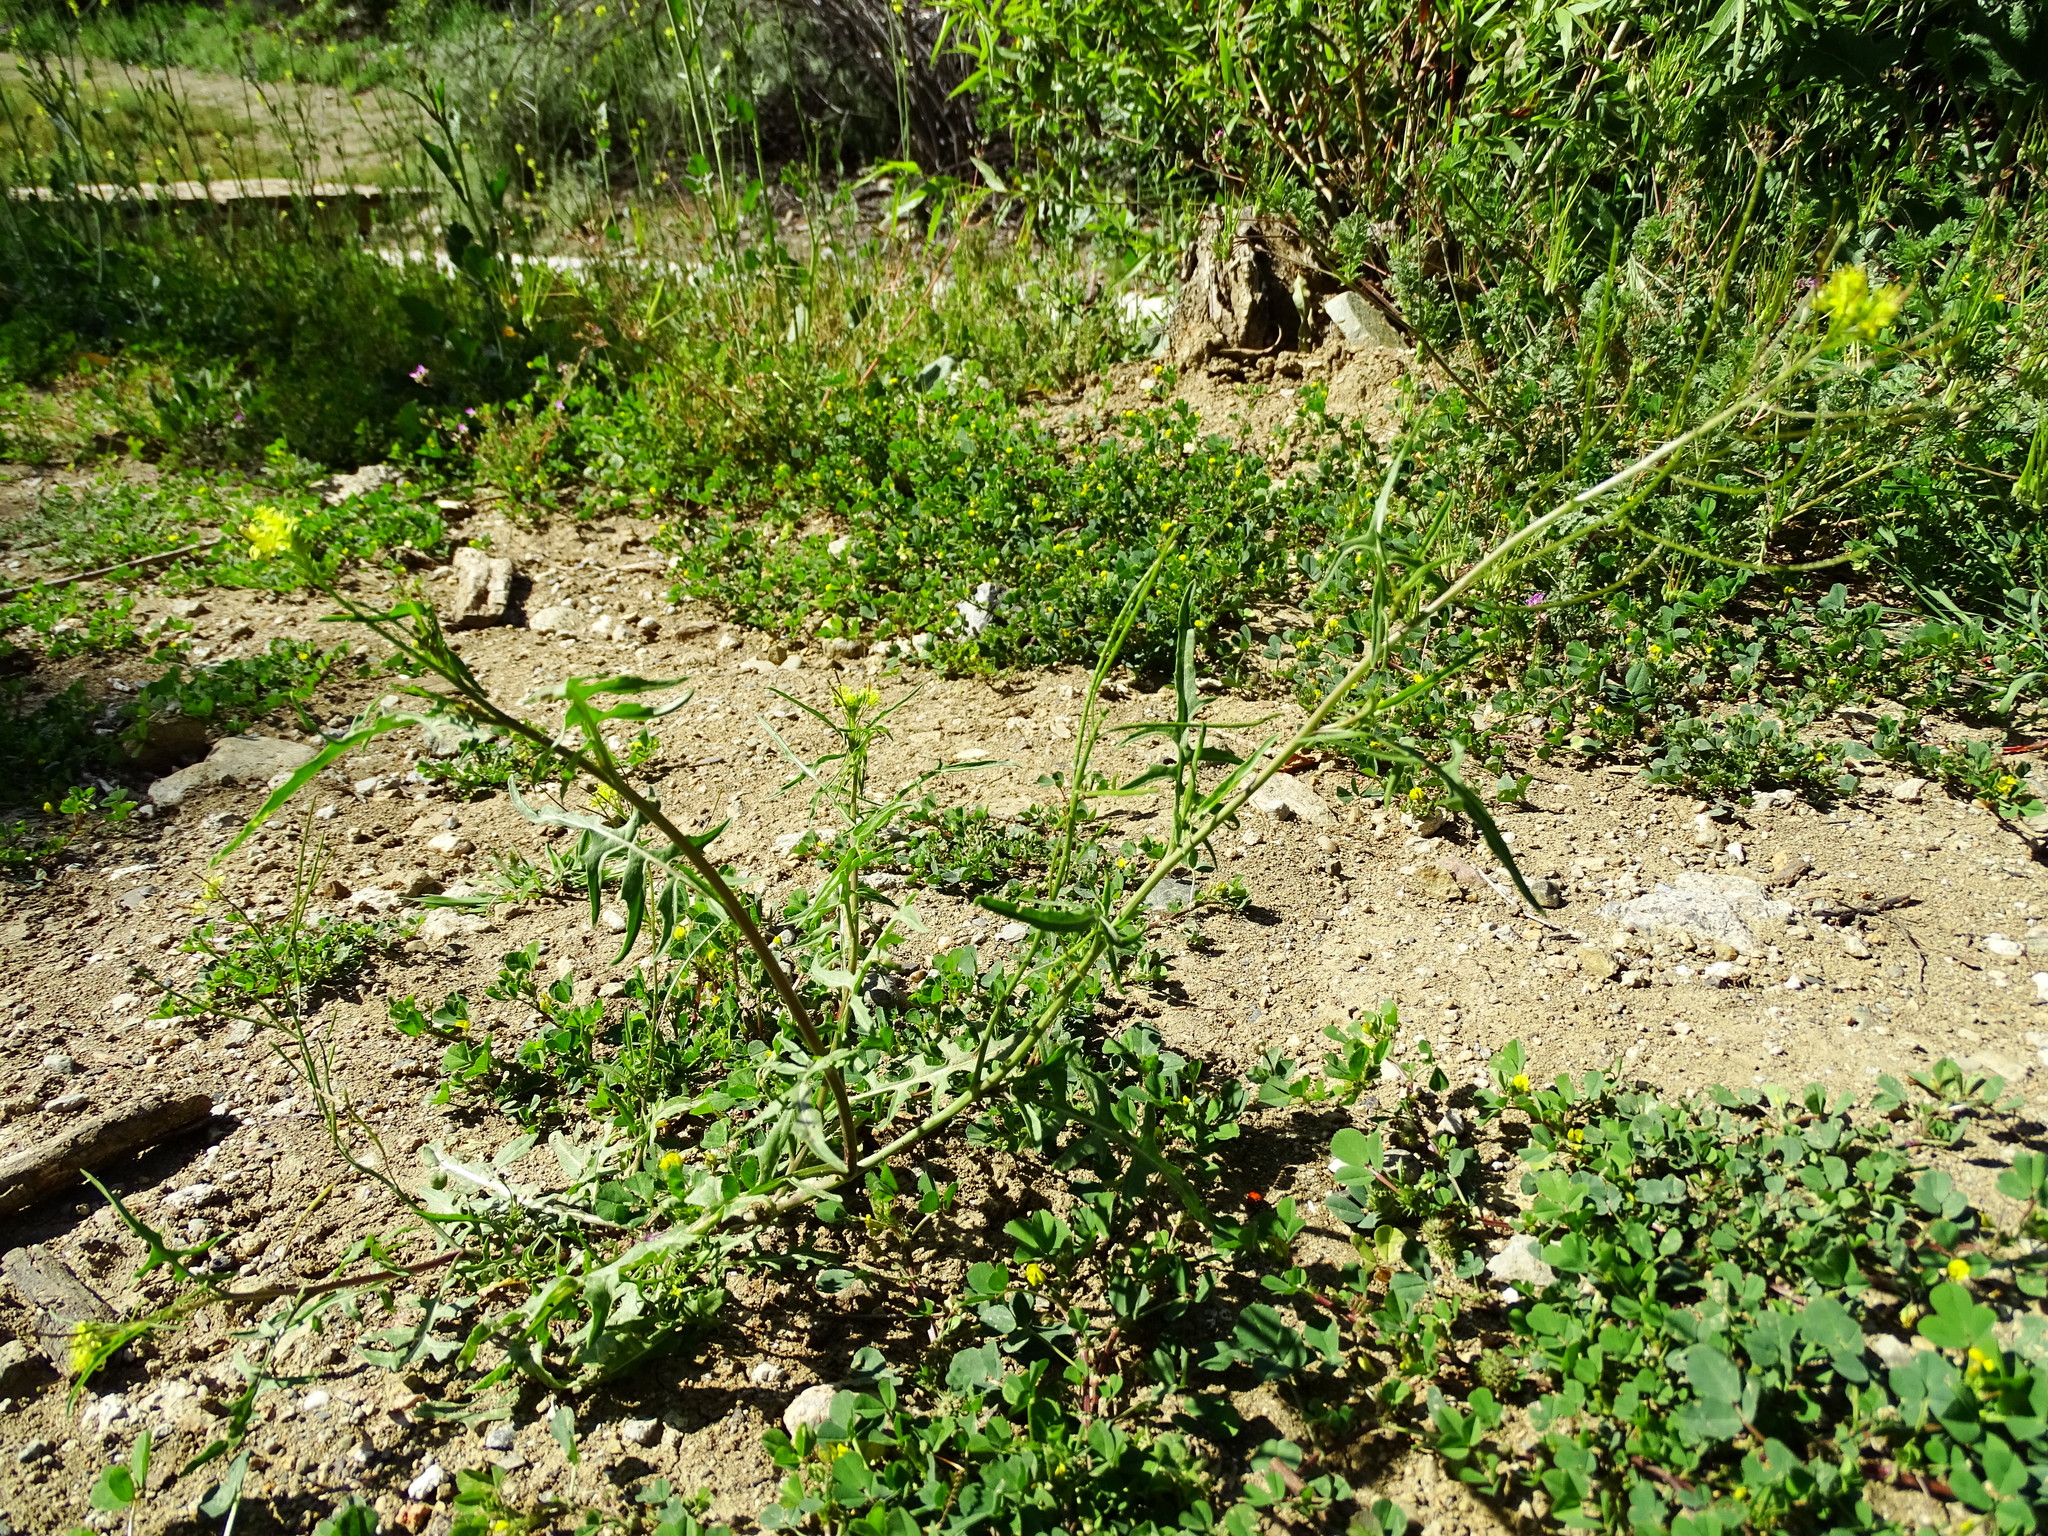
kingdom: Plantae
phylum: Tracheophyta
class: Magnoliopsida
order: Brassicales
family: Brassicaceae
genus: Sisymbrium
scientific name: Sisymbrium irio
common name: London rocket
